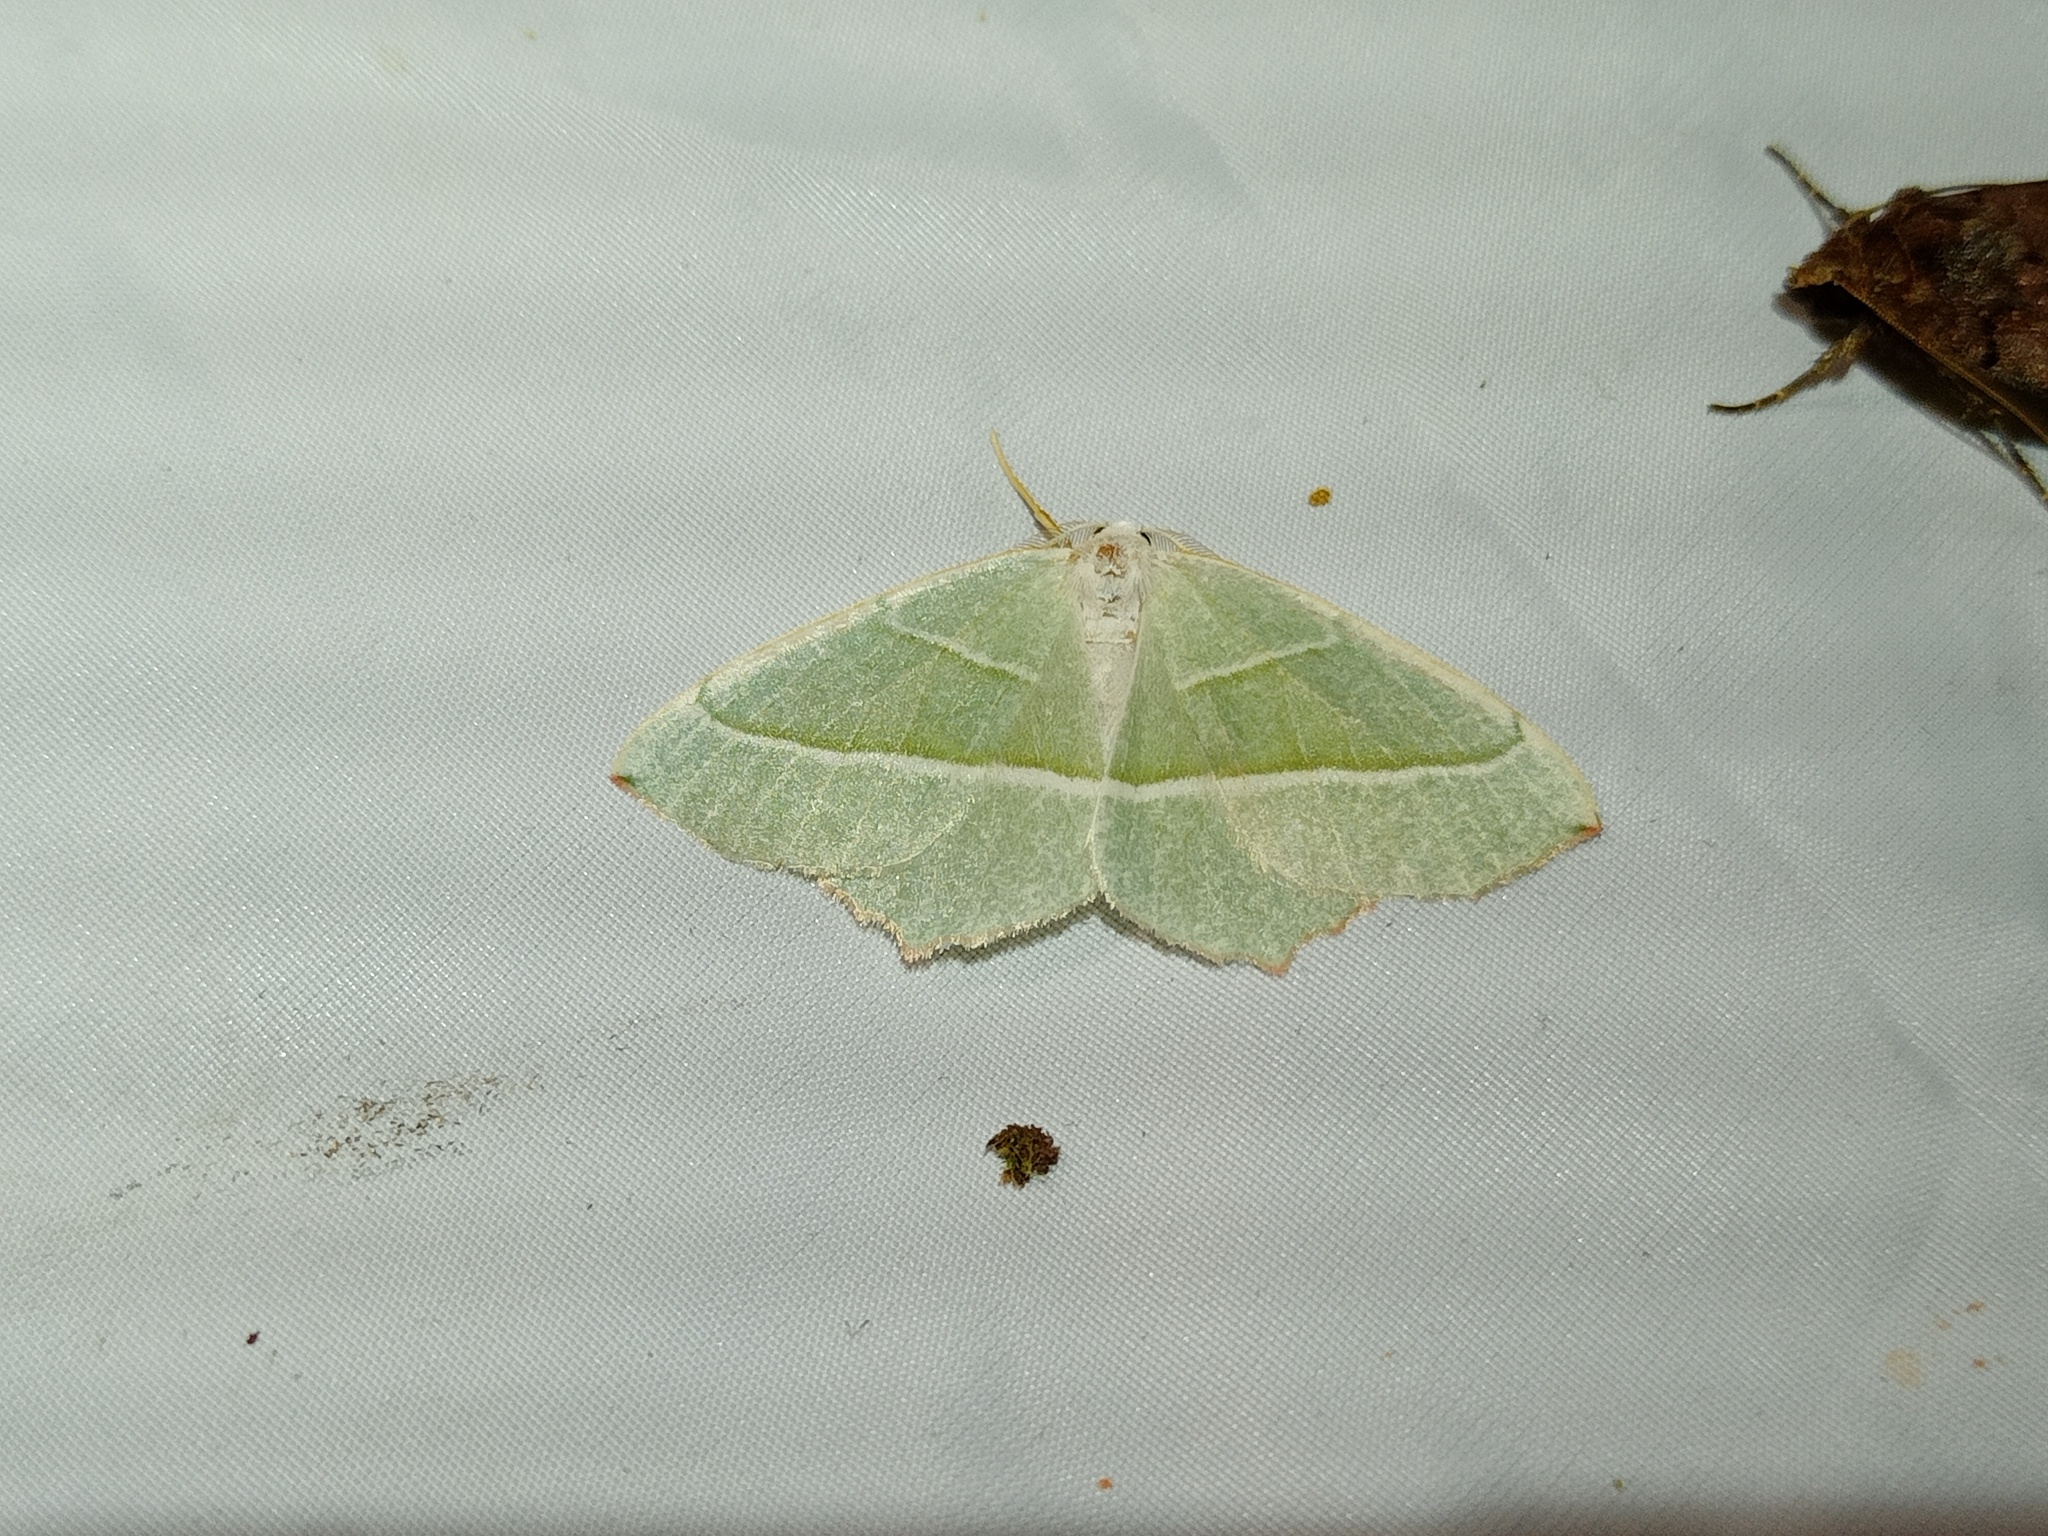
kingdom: Animalia
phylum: Arthropoda
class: Insecta
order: Lepidoptera
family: Geometridae
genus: Campaea
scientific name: Campaea margaritaria
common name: Light emerald
